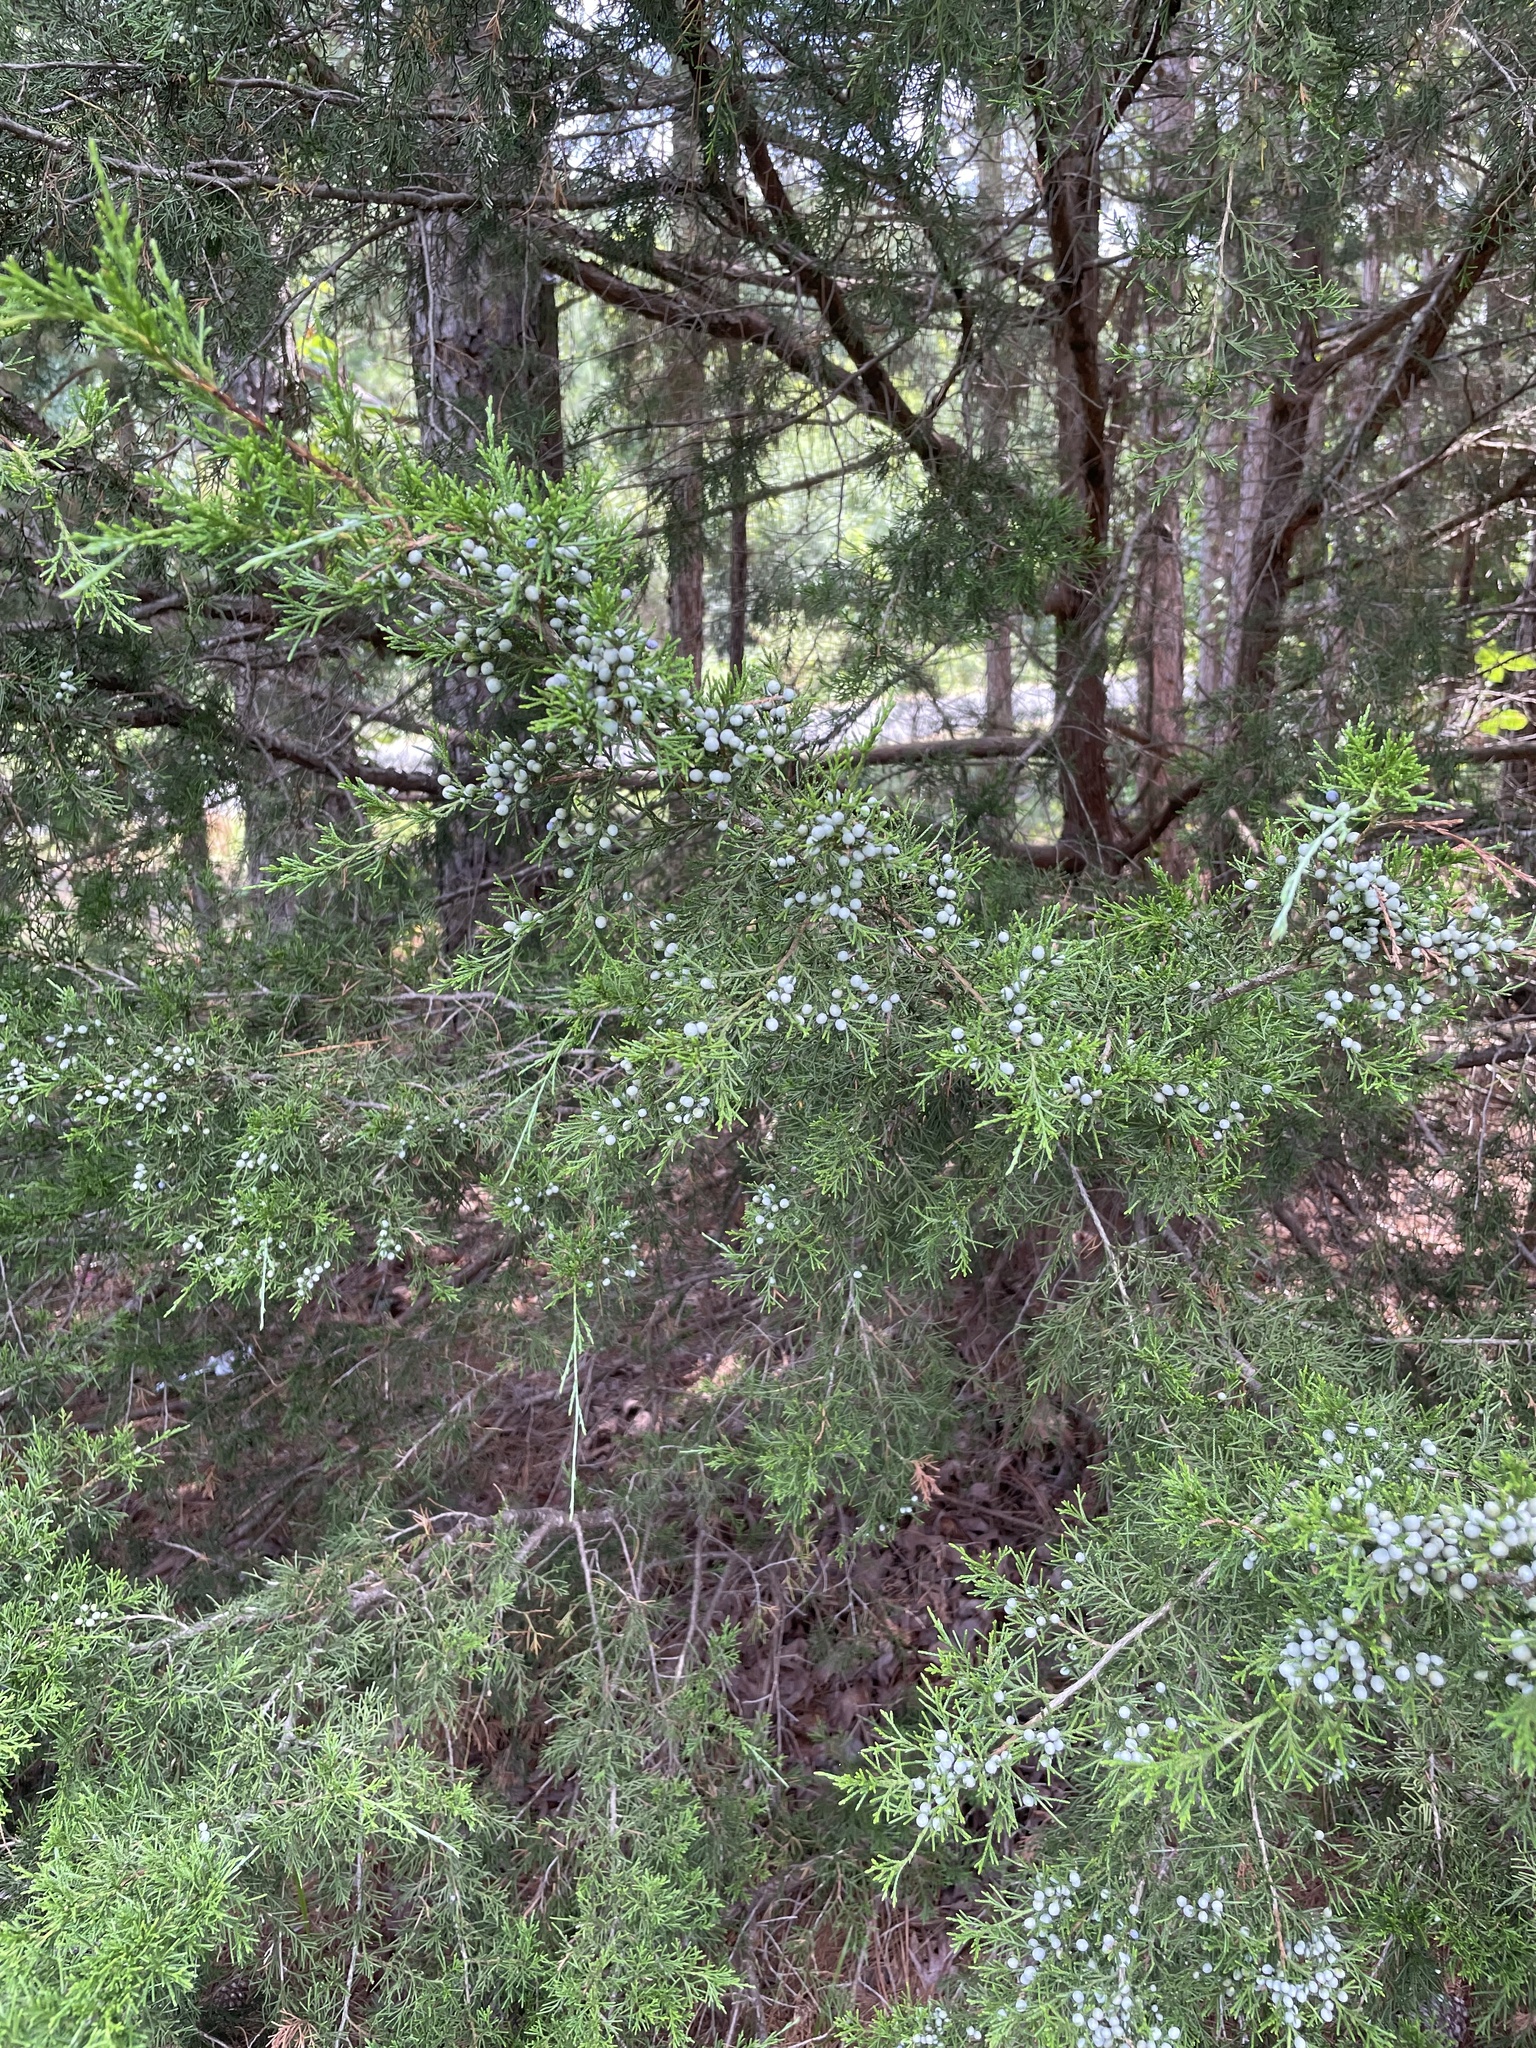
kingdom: Plantae
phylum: Tracheophyta
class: Pinopsida
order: Pinales
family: Cupressaceae
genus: Juniperus
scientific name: Juniperus virginiana
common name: Red juniper
